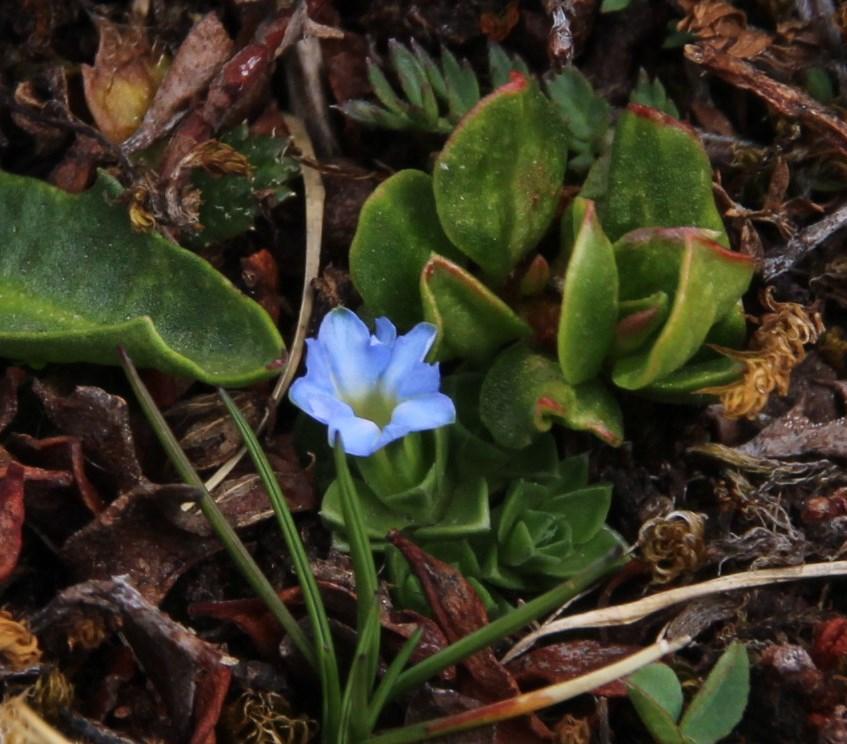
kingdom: Plantae
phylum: Tracheophyta
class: Magnoliopsida
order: Gentianales
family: Gentianaceae
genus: Gentiana
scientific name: Gentiana sedifolia
